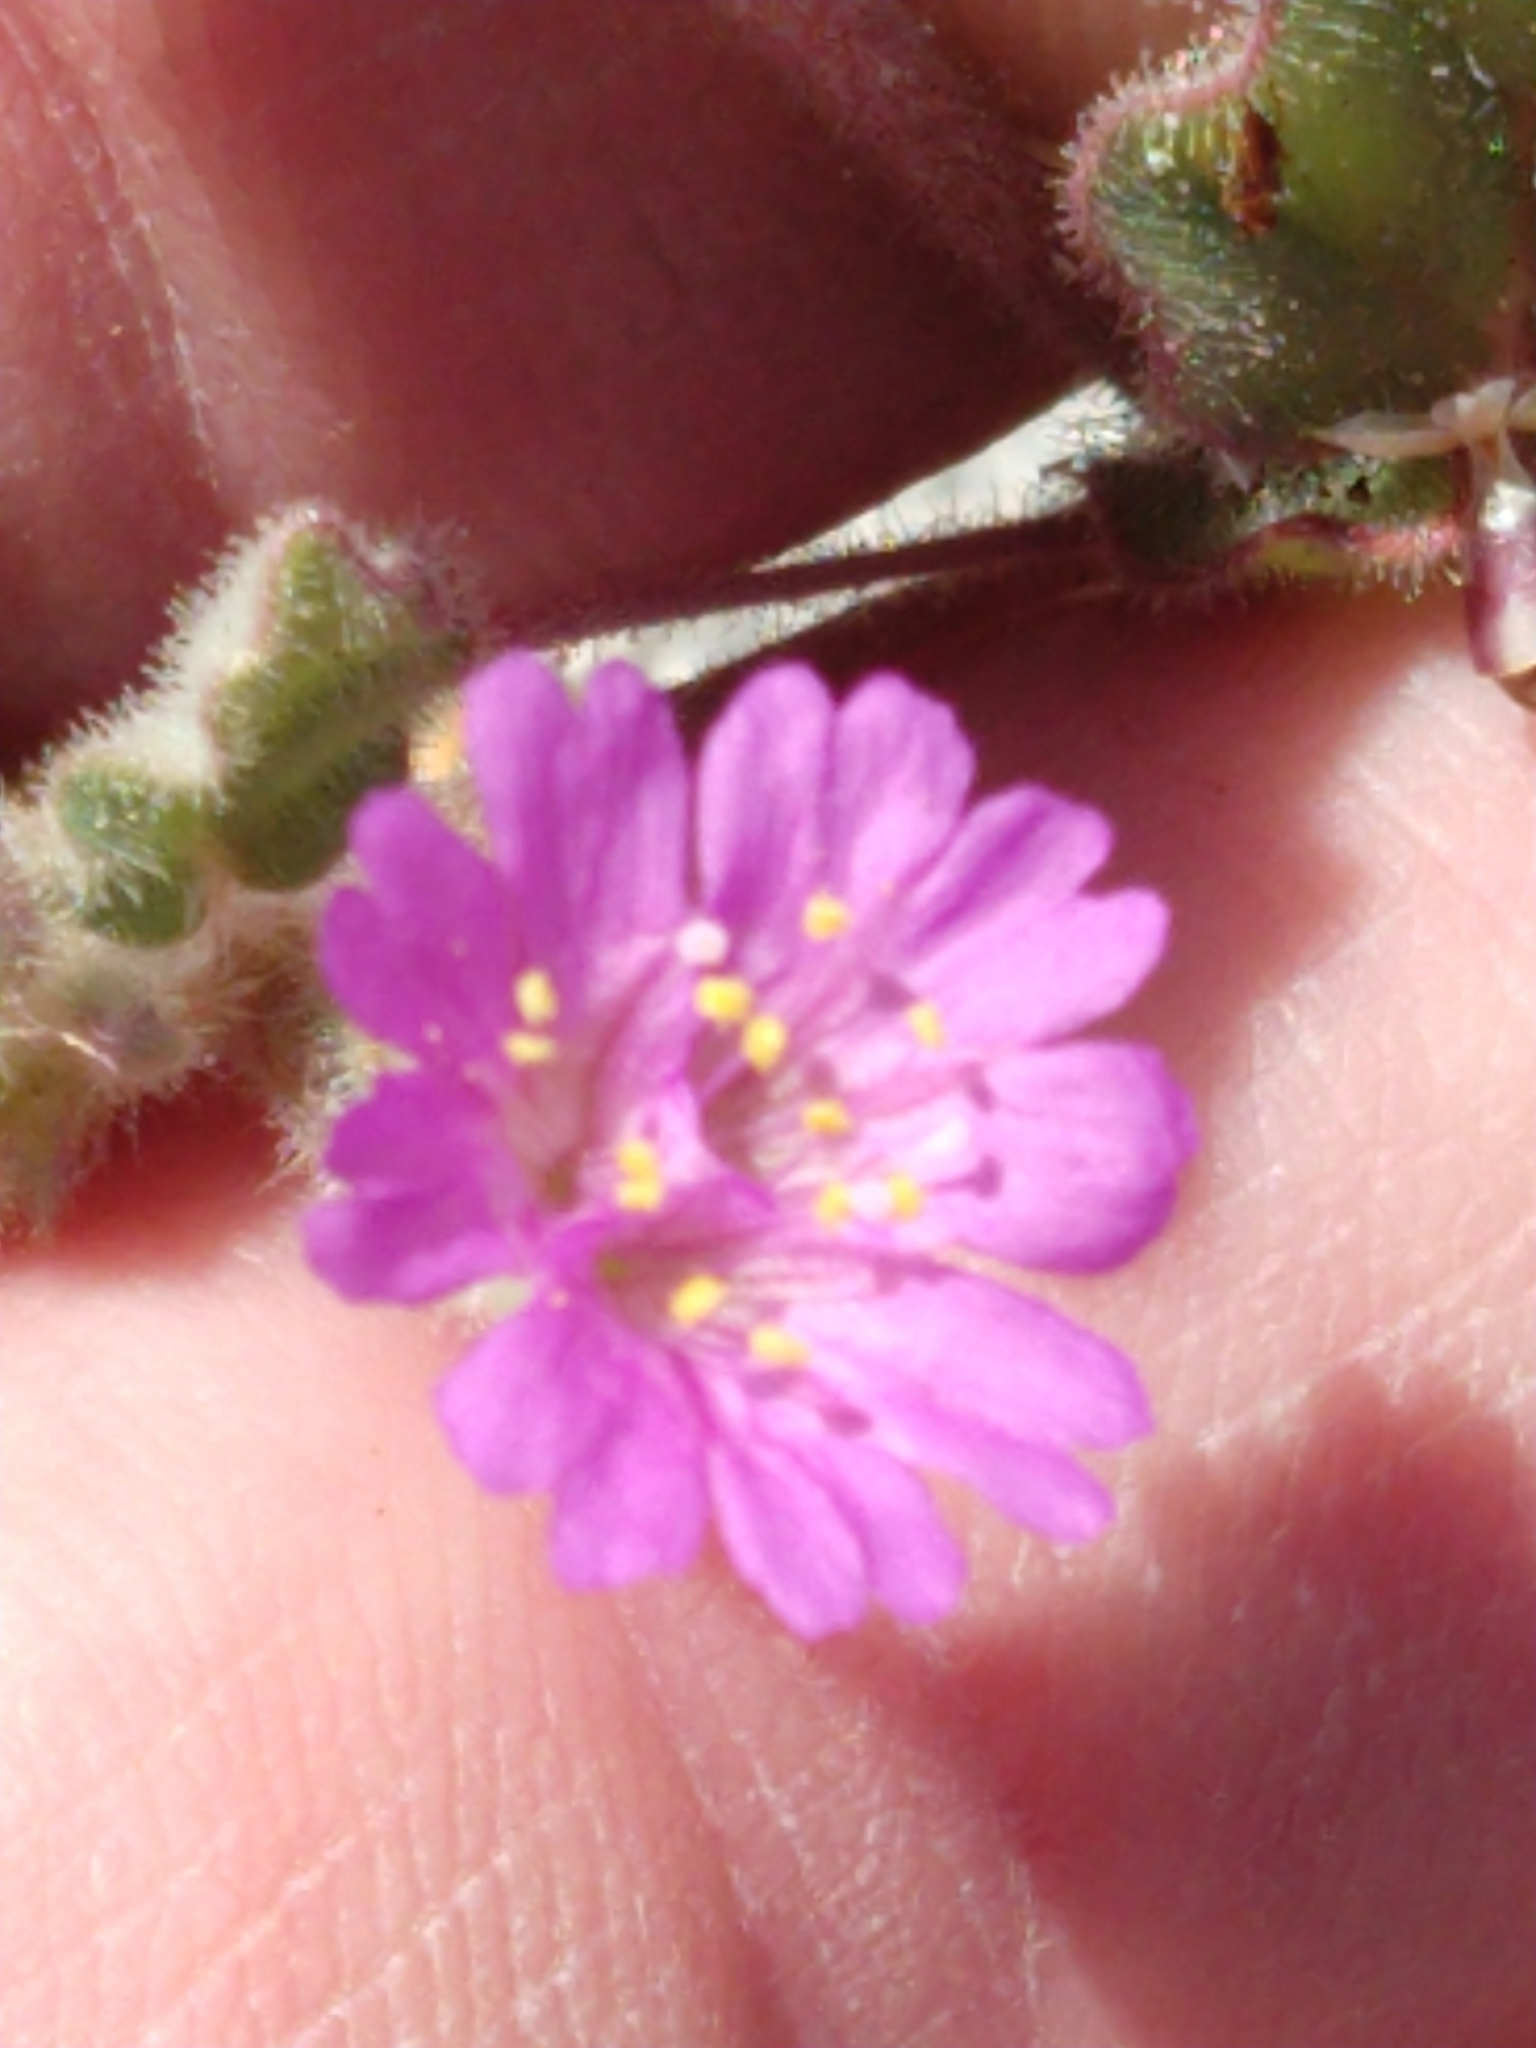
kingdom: Plantae
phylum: Tracheophyta
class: Magnoliopsida
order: Caryophyllales
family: Nyctaginaceae
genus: Allionia
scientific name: Allionia incarnata
